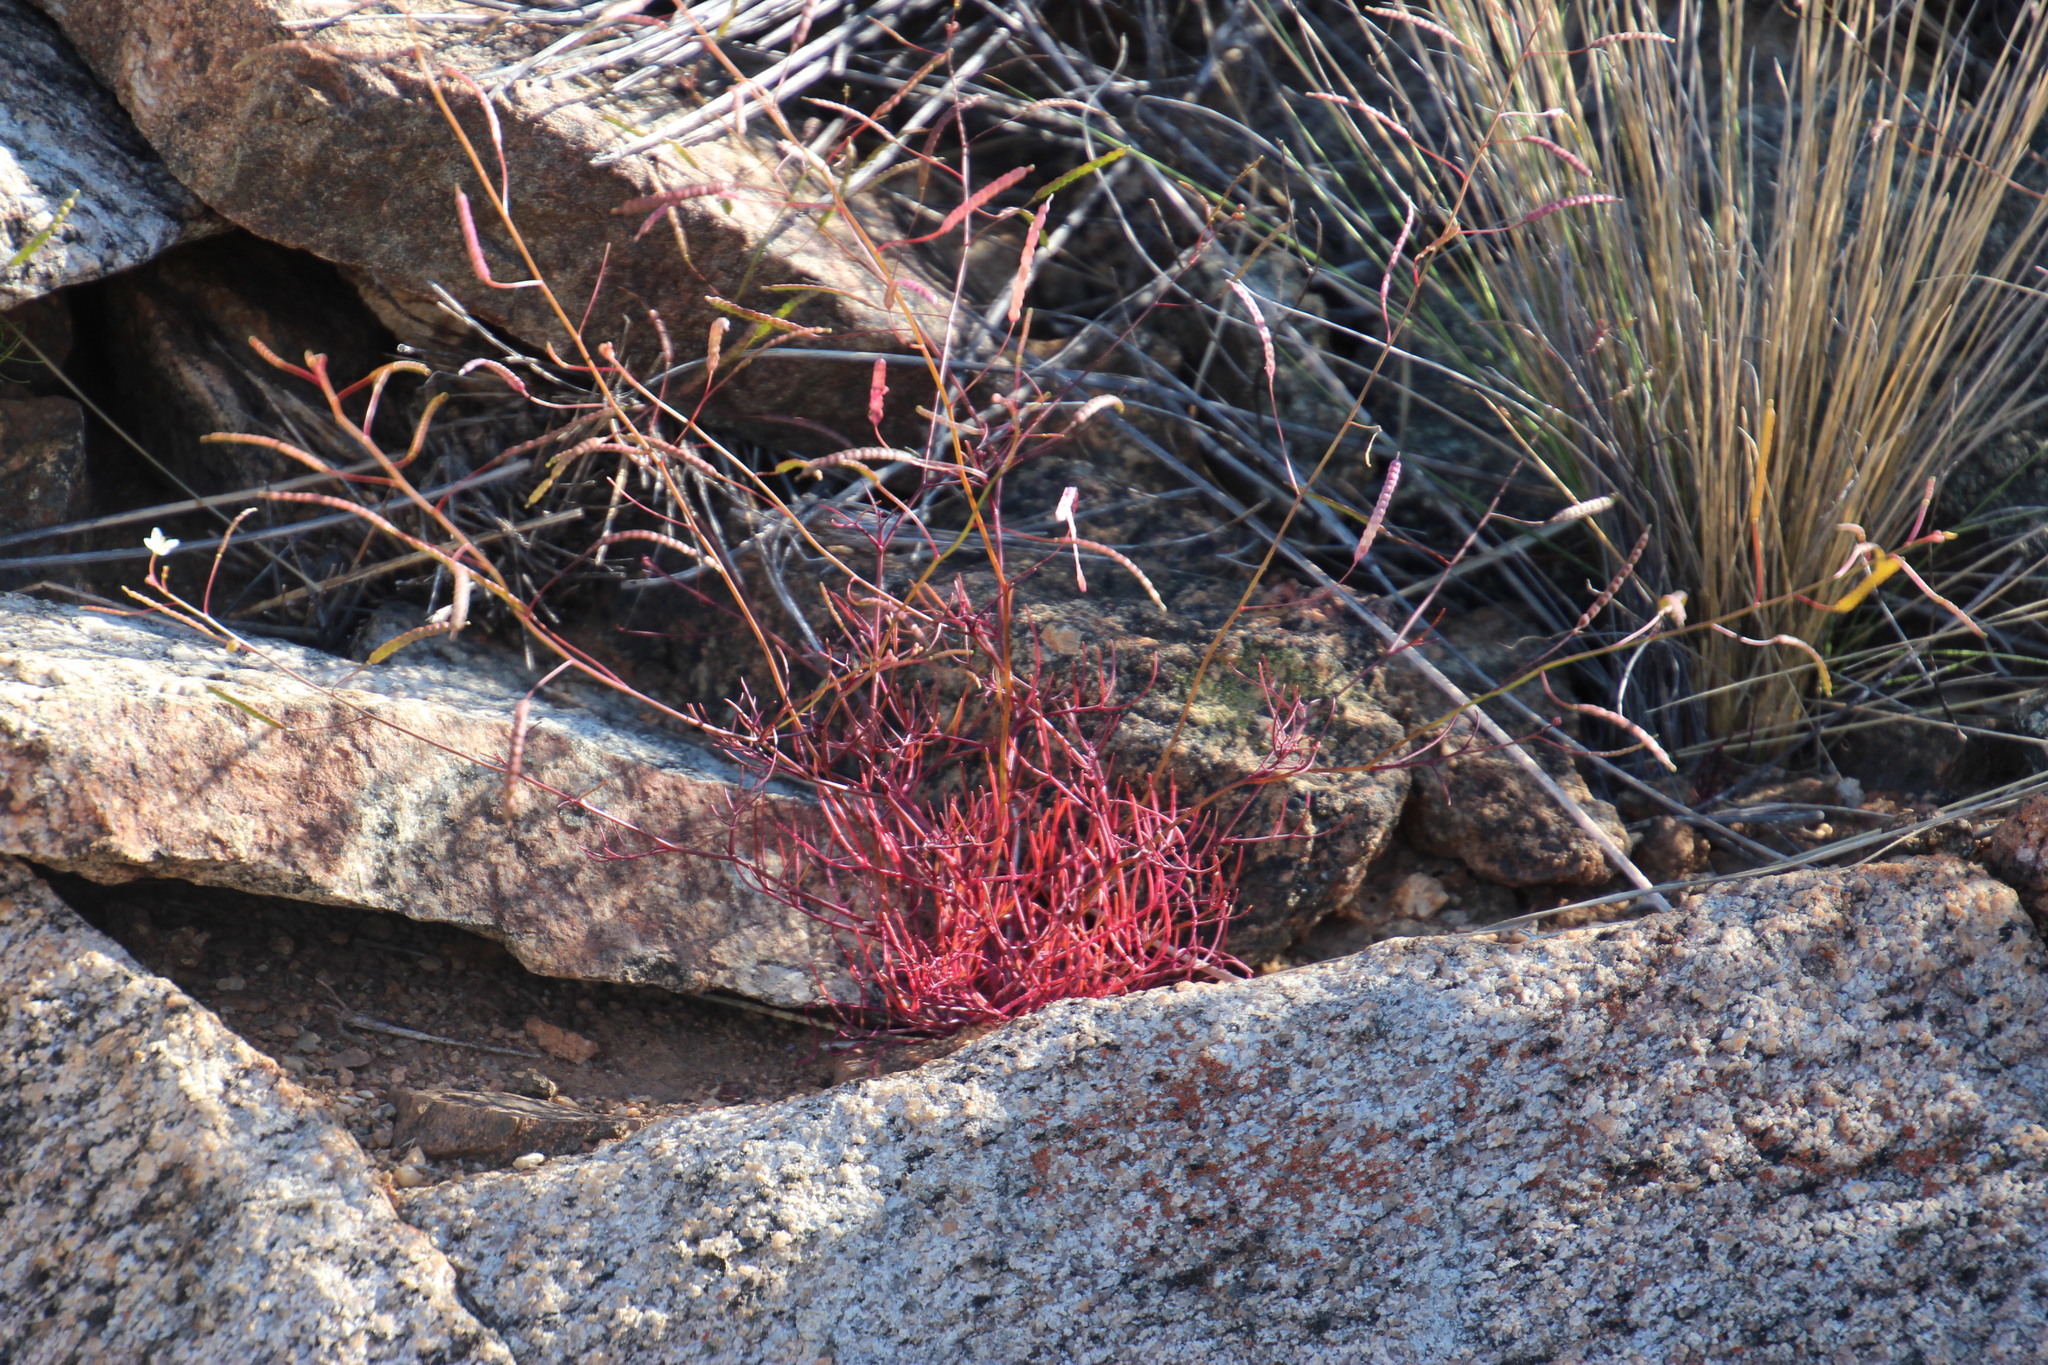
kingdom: Plantae
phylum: Tracheophyta
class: Magnoliopsida
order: Brassicales
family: Brassicaceae
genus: Heliophila
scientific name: Heliophila variabilis
